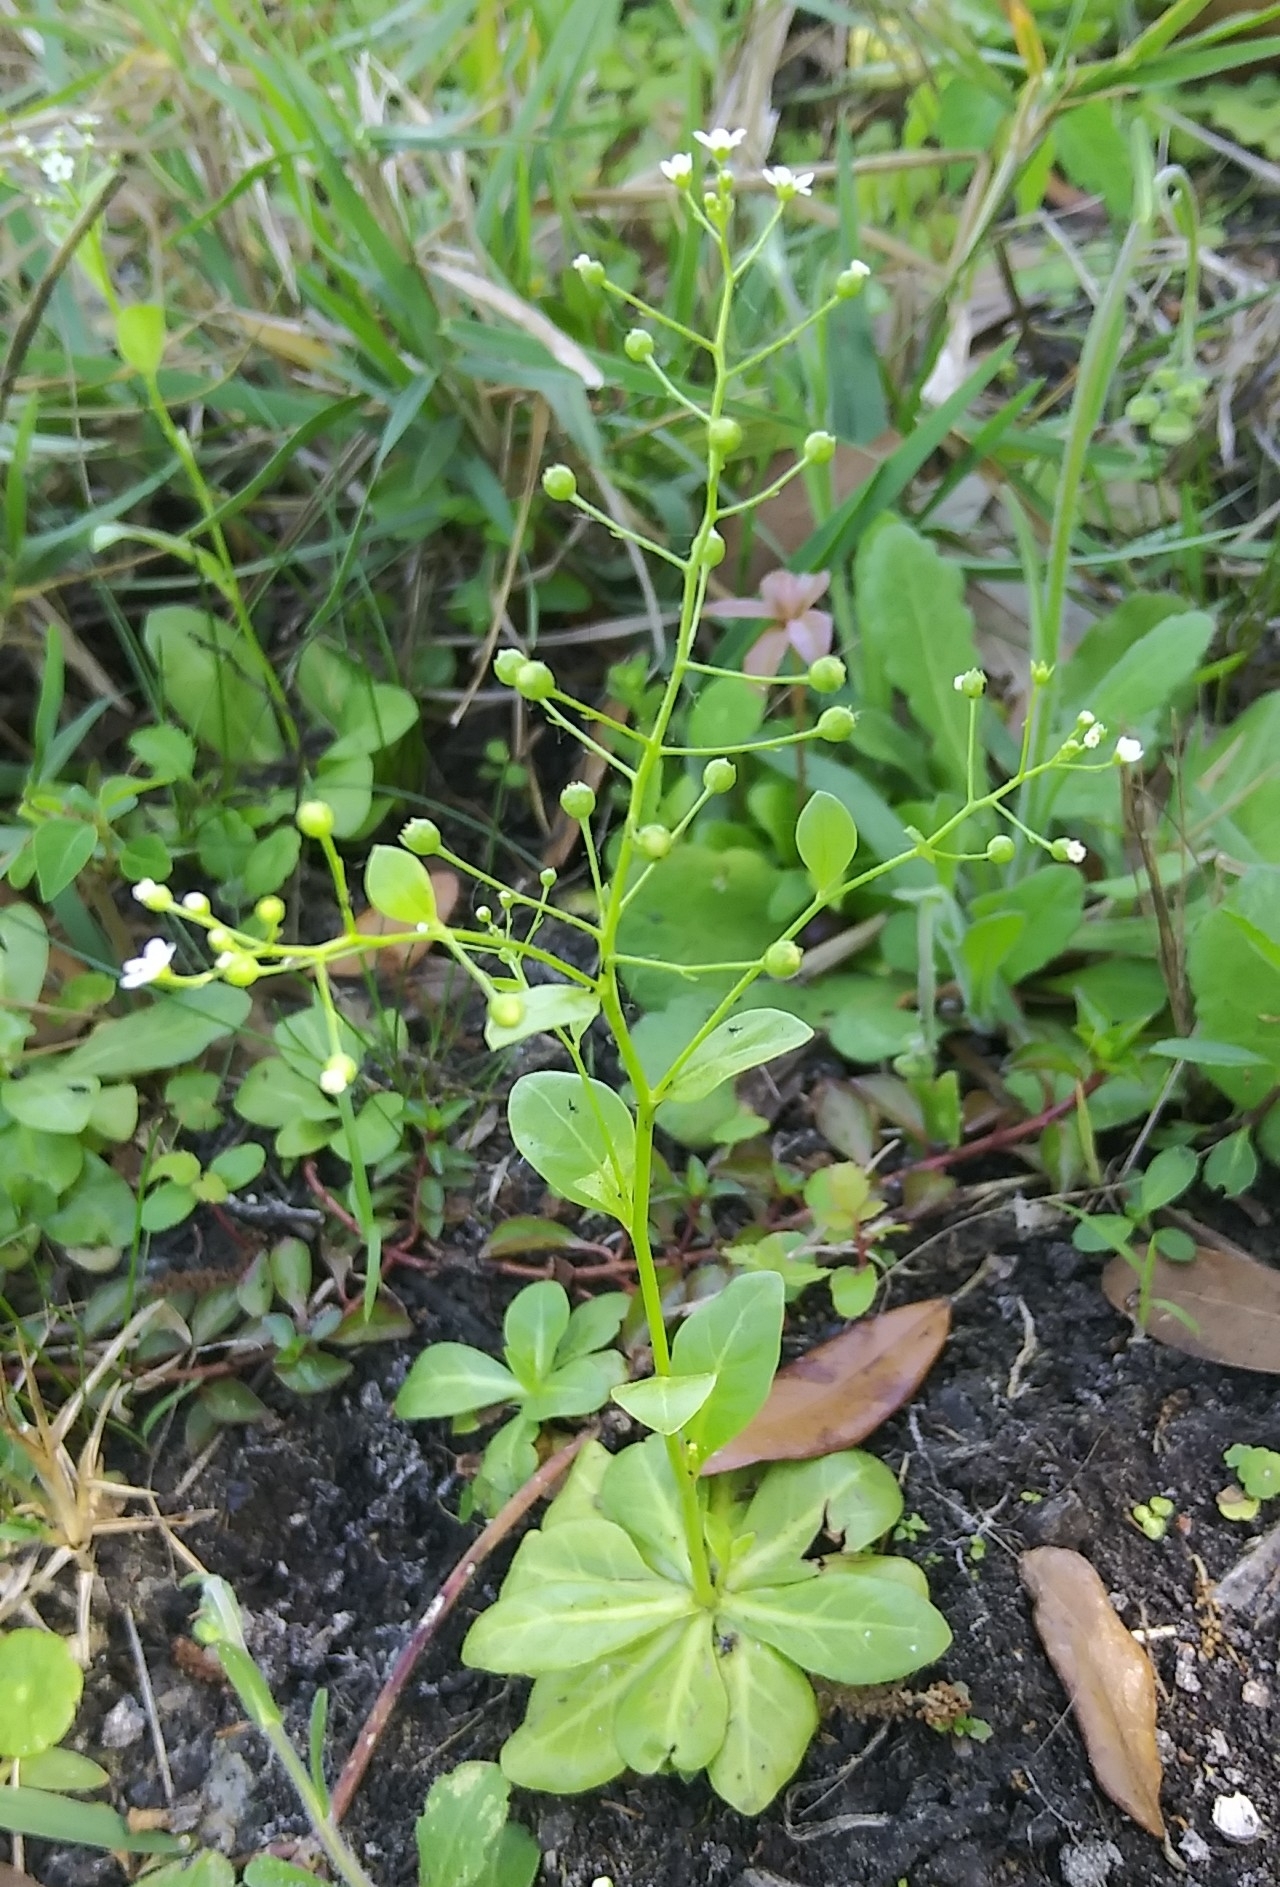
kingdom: Plantae
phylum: Tracheophyta
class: Magnoliopsida
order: Ericales
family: Primulaceae
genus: Samolus
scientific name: Samolus parviflorus
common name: False water pimpernel
